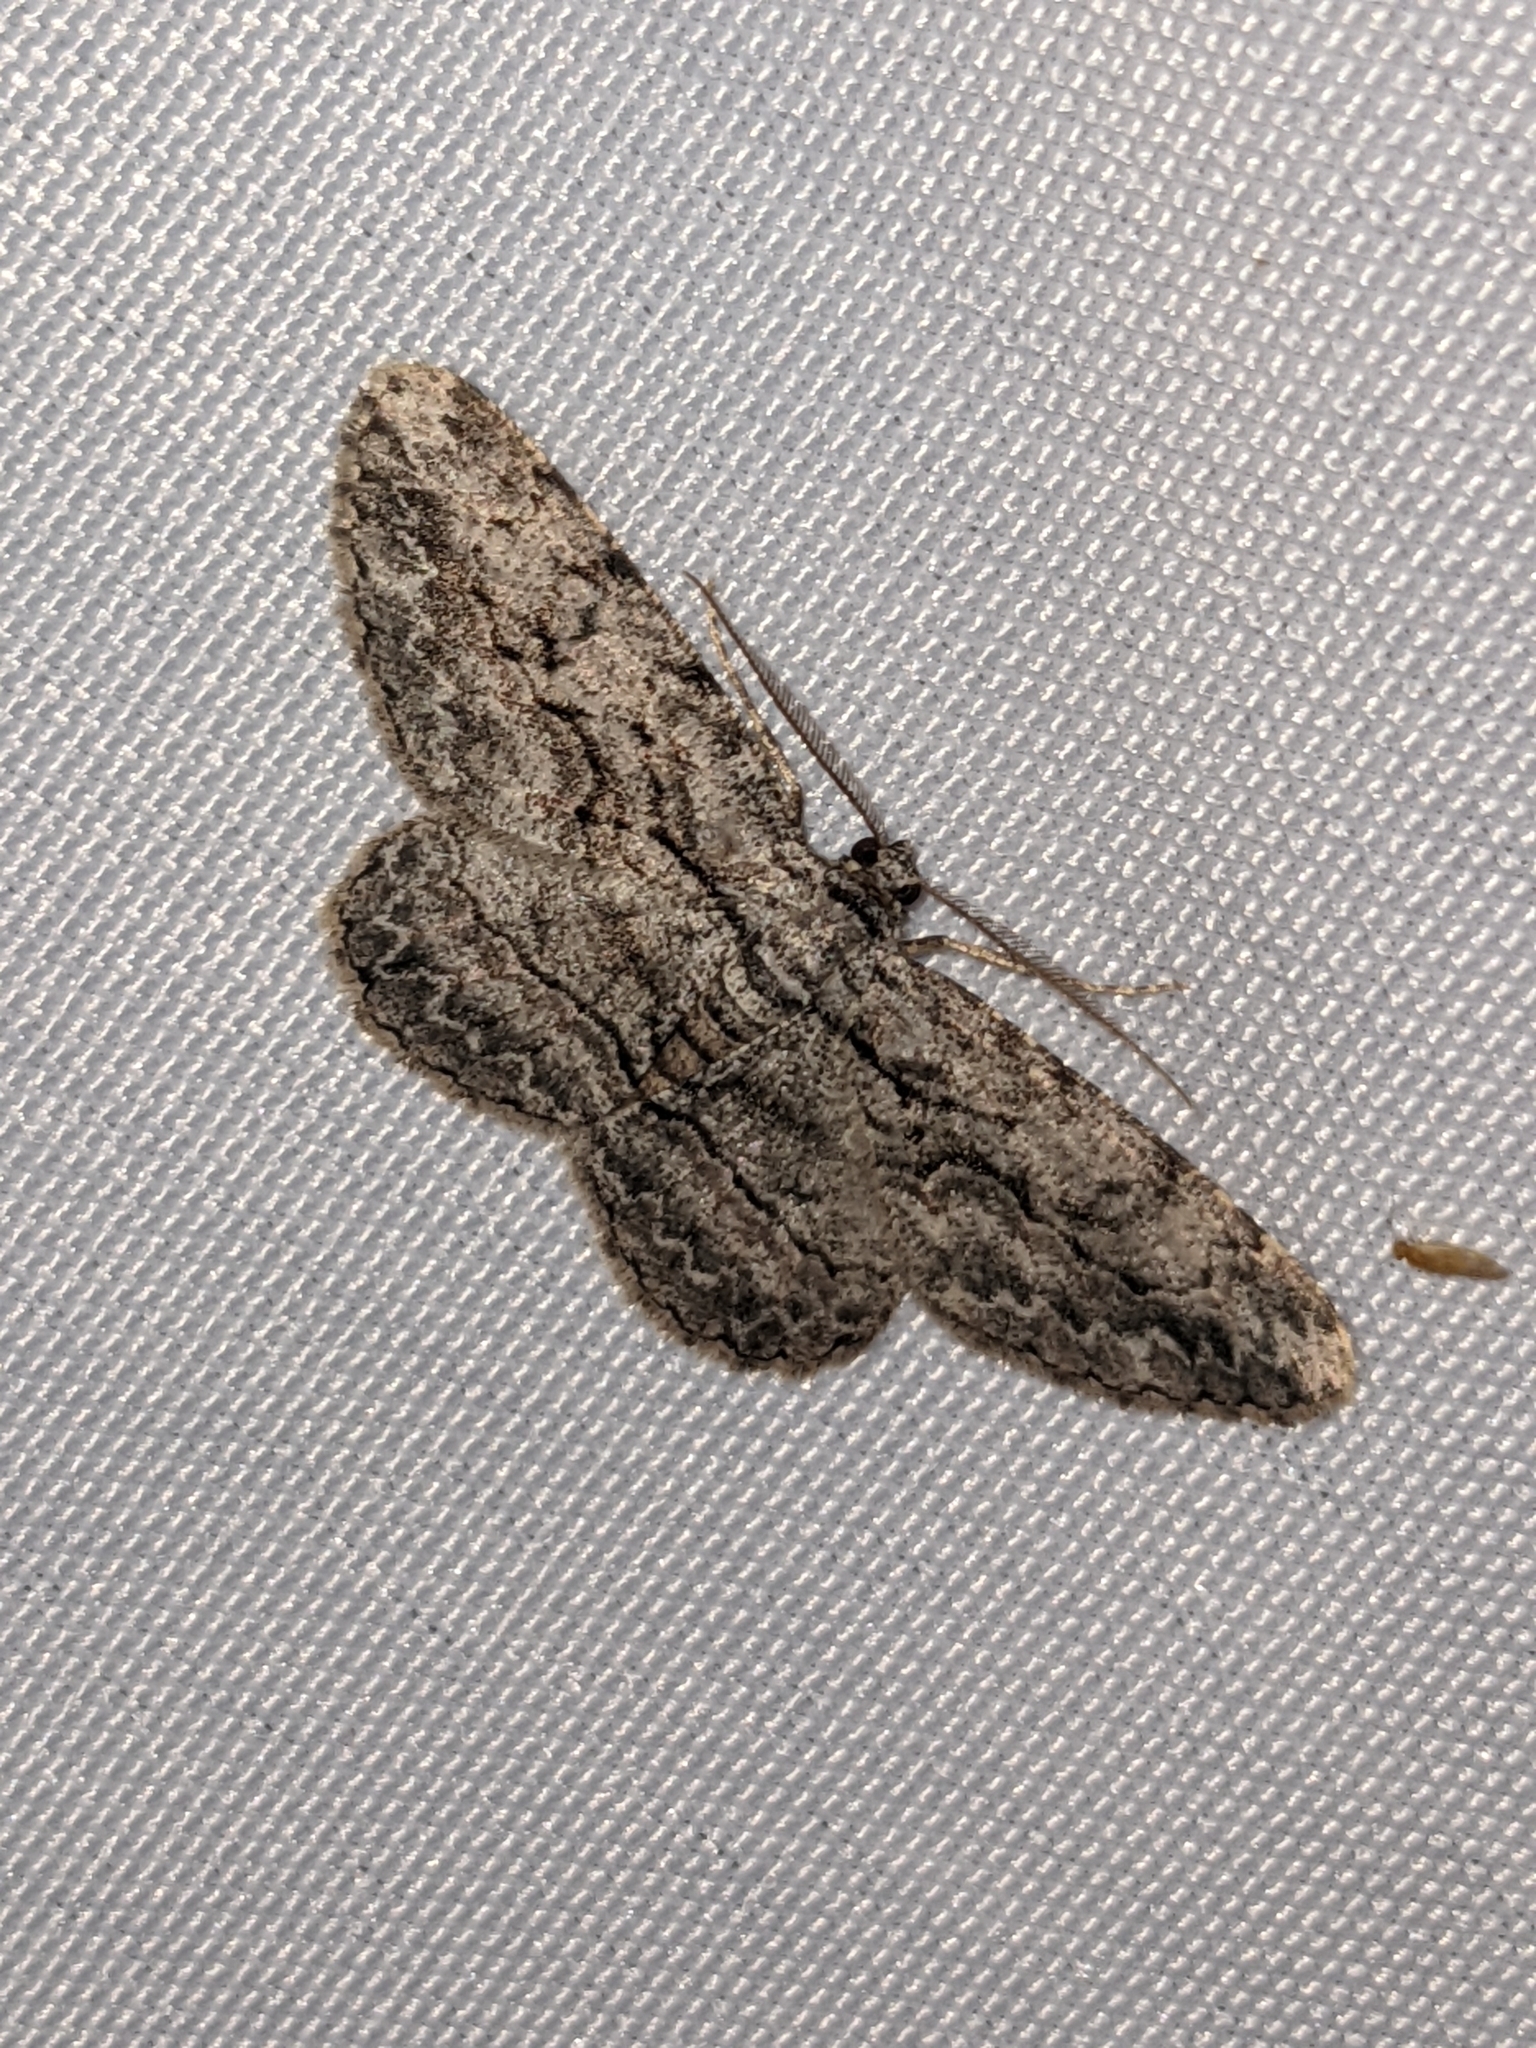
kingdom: Animalia
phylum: Arthropoda
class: Insecta
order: Lepidoptera
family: Geometridae
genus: Anavitrinella
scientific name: Anavitrinella pampinaria
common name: Common gray
